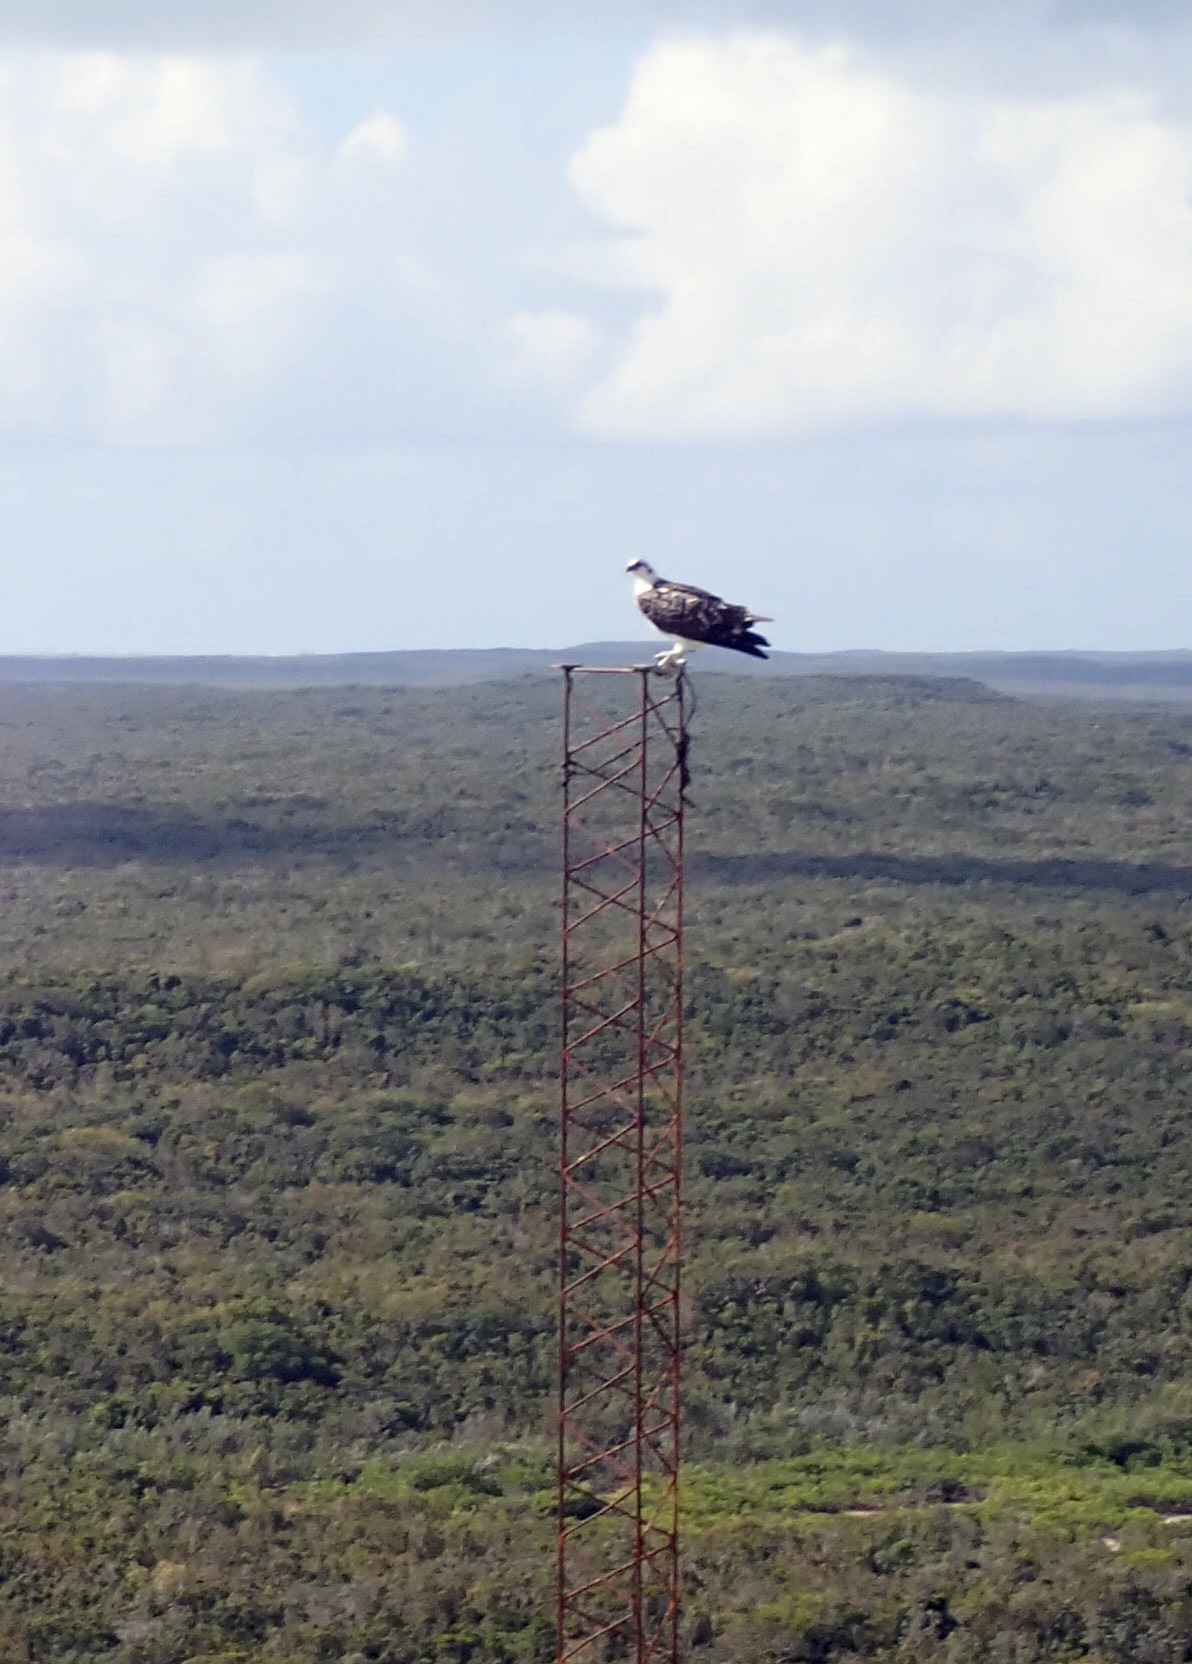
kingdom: Animalia
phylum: Chordata
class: Aves
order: Accipitriformes
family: Pandionidae
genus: Pandion
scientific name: Pandion haliaetus
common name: Osprey
